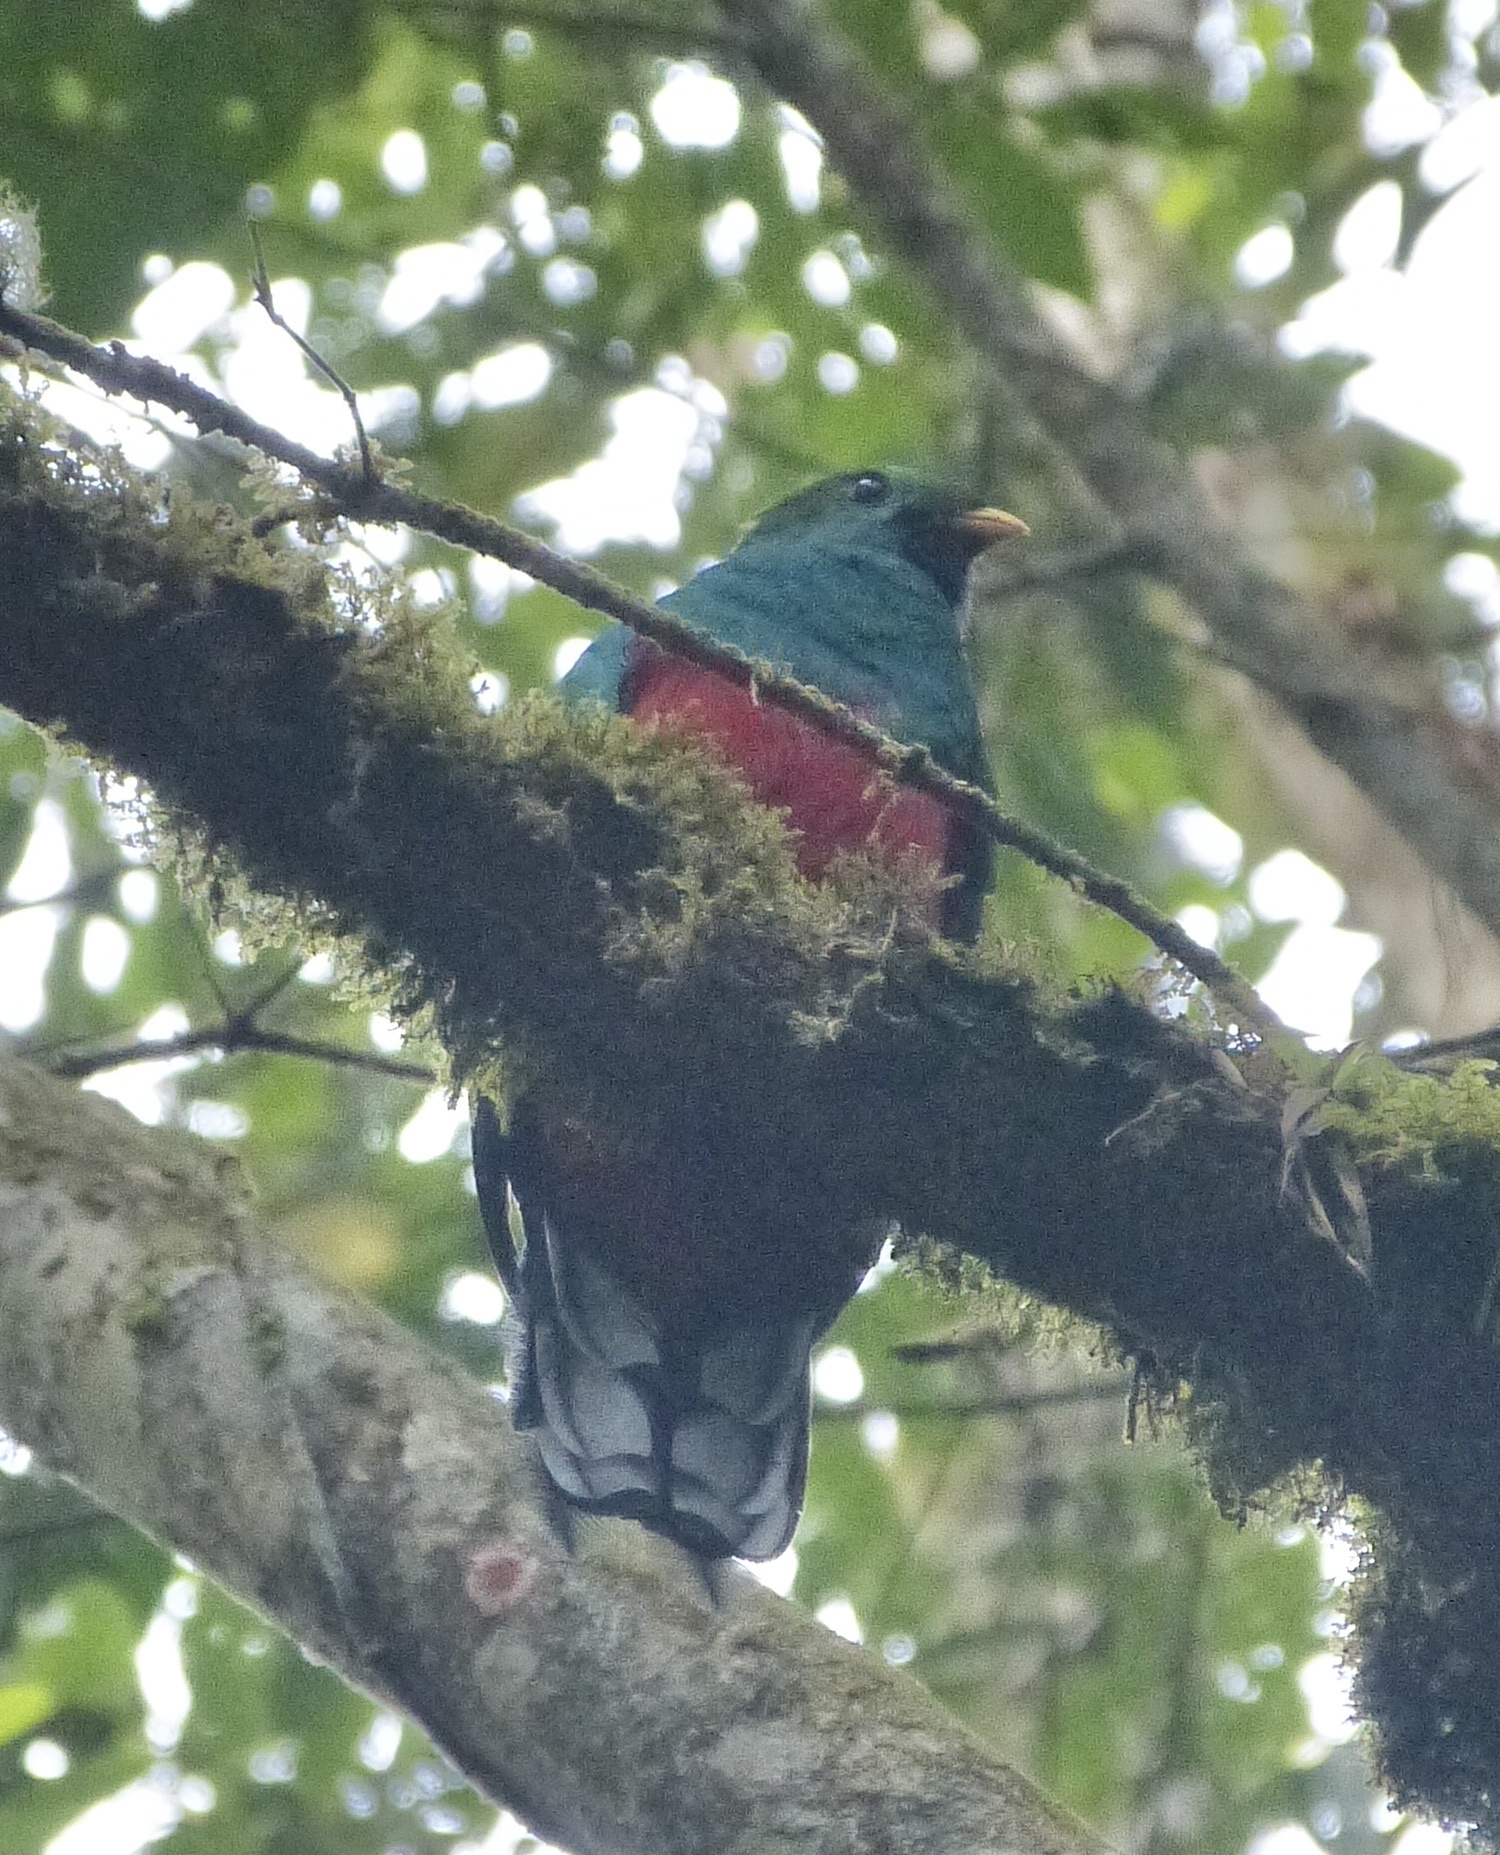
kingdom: Animalia
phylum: Chordata
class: Aves
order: Trogoniformes
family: Trogonidae
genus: Pharomachrus
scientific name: Pharomachrus fulgidus
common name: White-tipped quetzal
